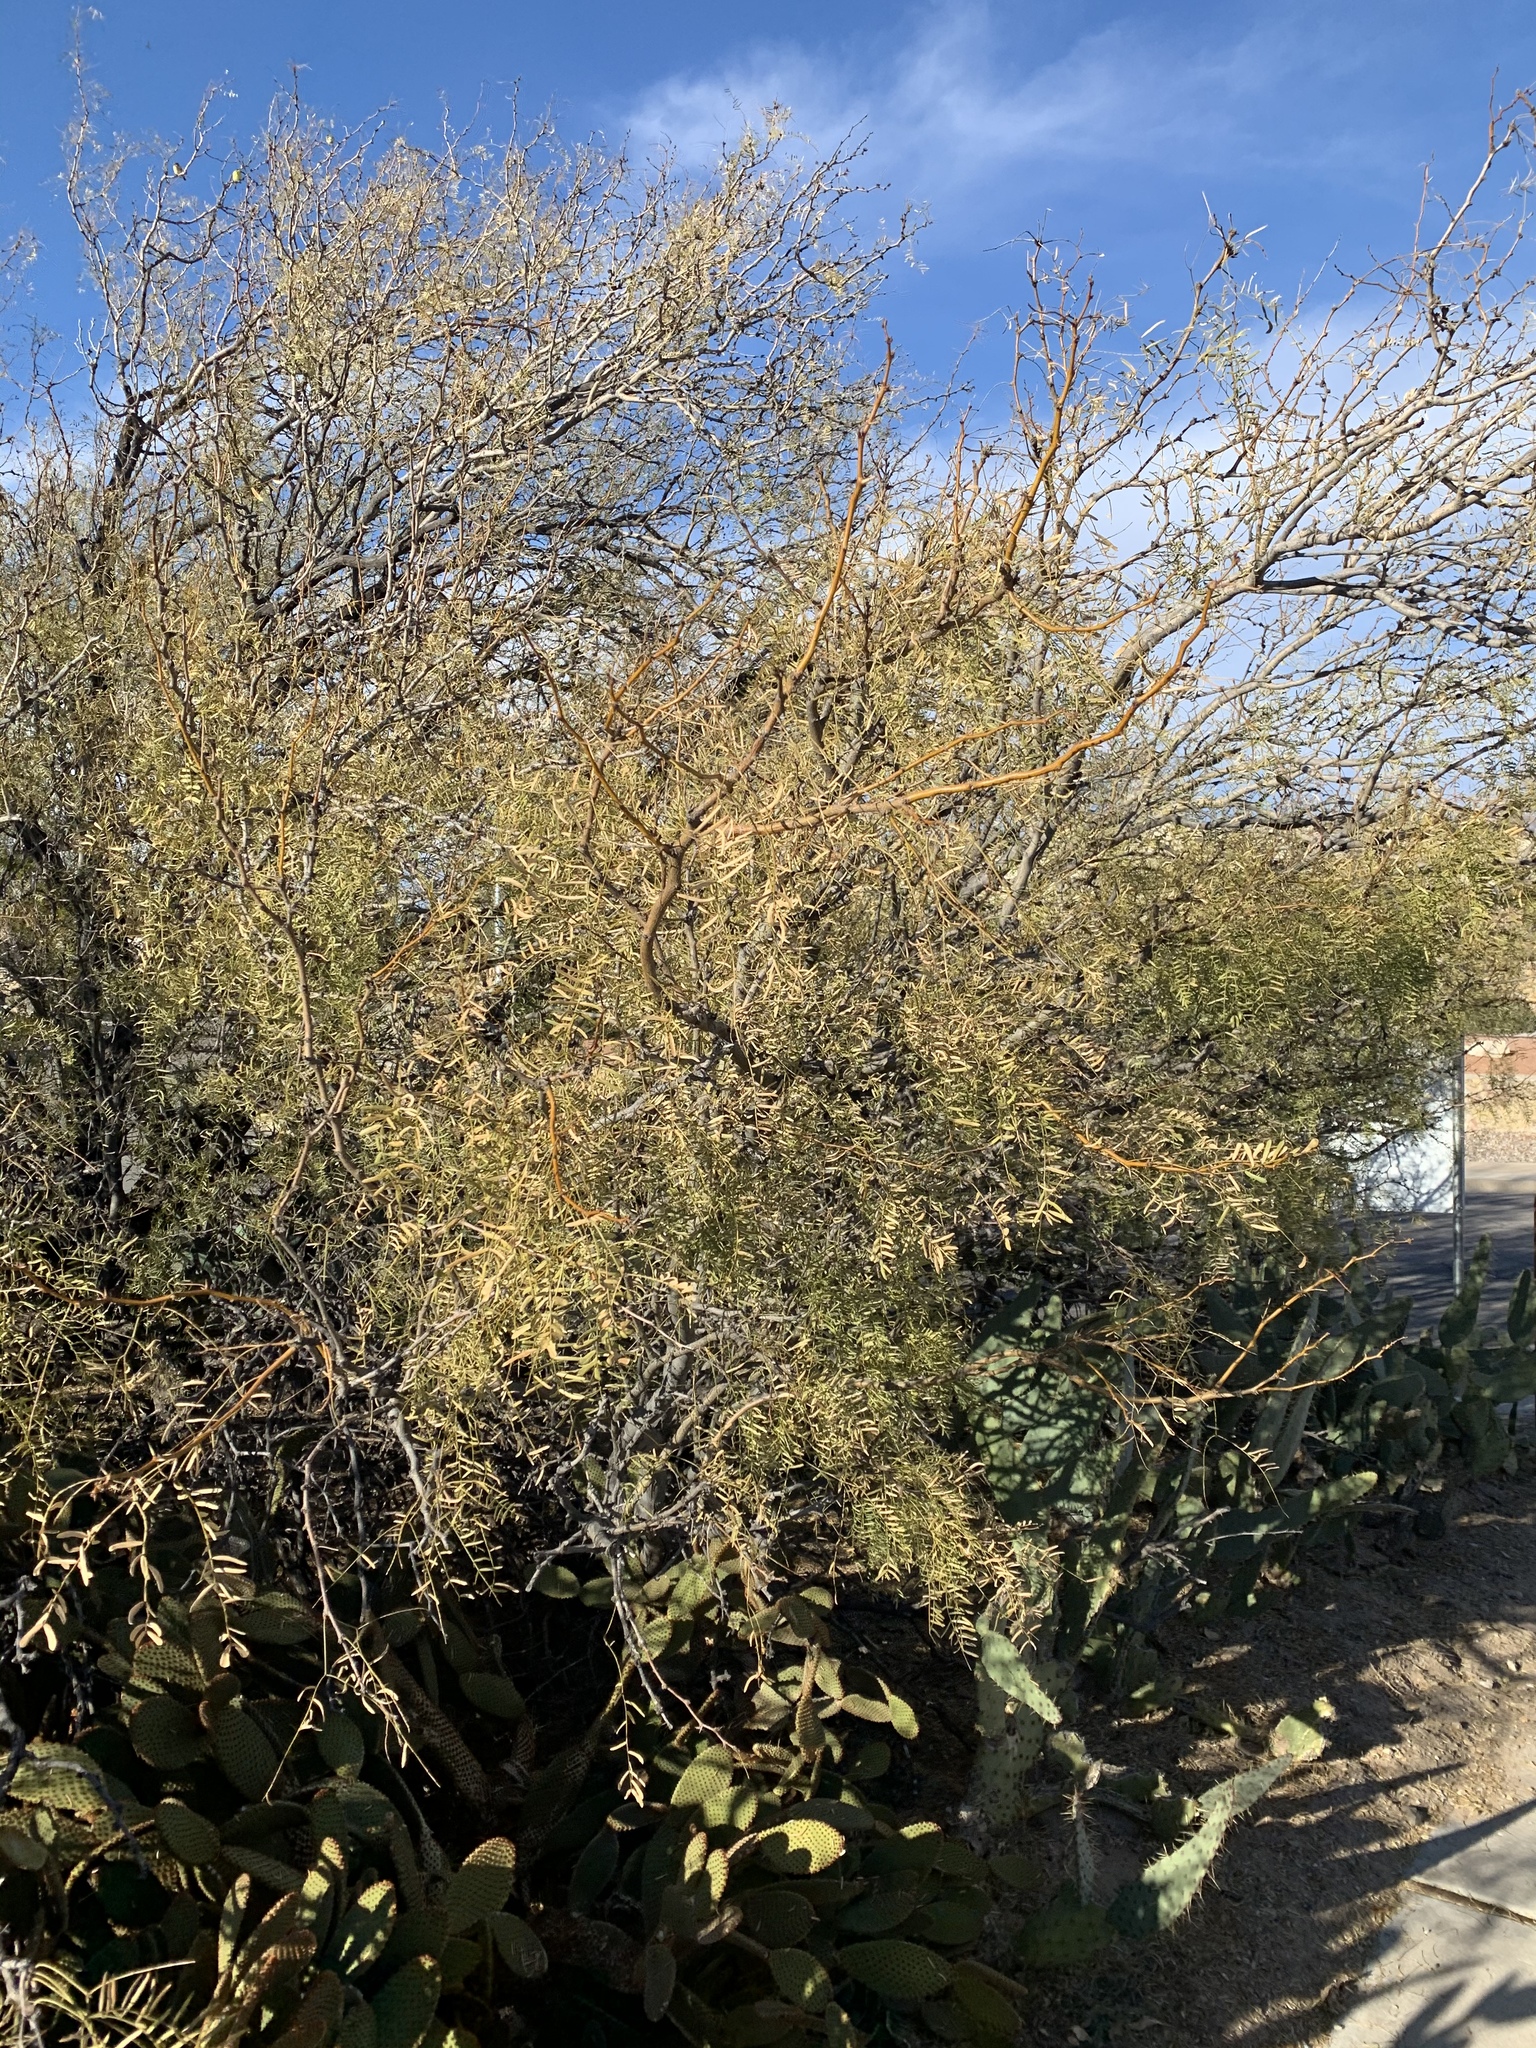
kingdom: Plantae
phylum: Tracheophyta
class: Magnoliopsida
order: Fabales
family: Fabaceae
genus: Prosopis
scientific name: Prosopis glandulosa
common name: Honey mesquite
